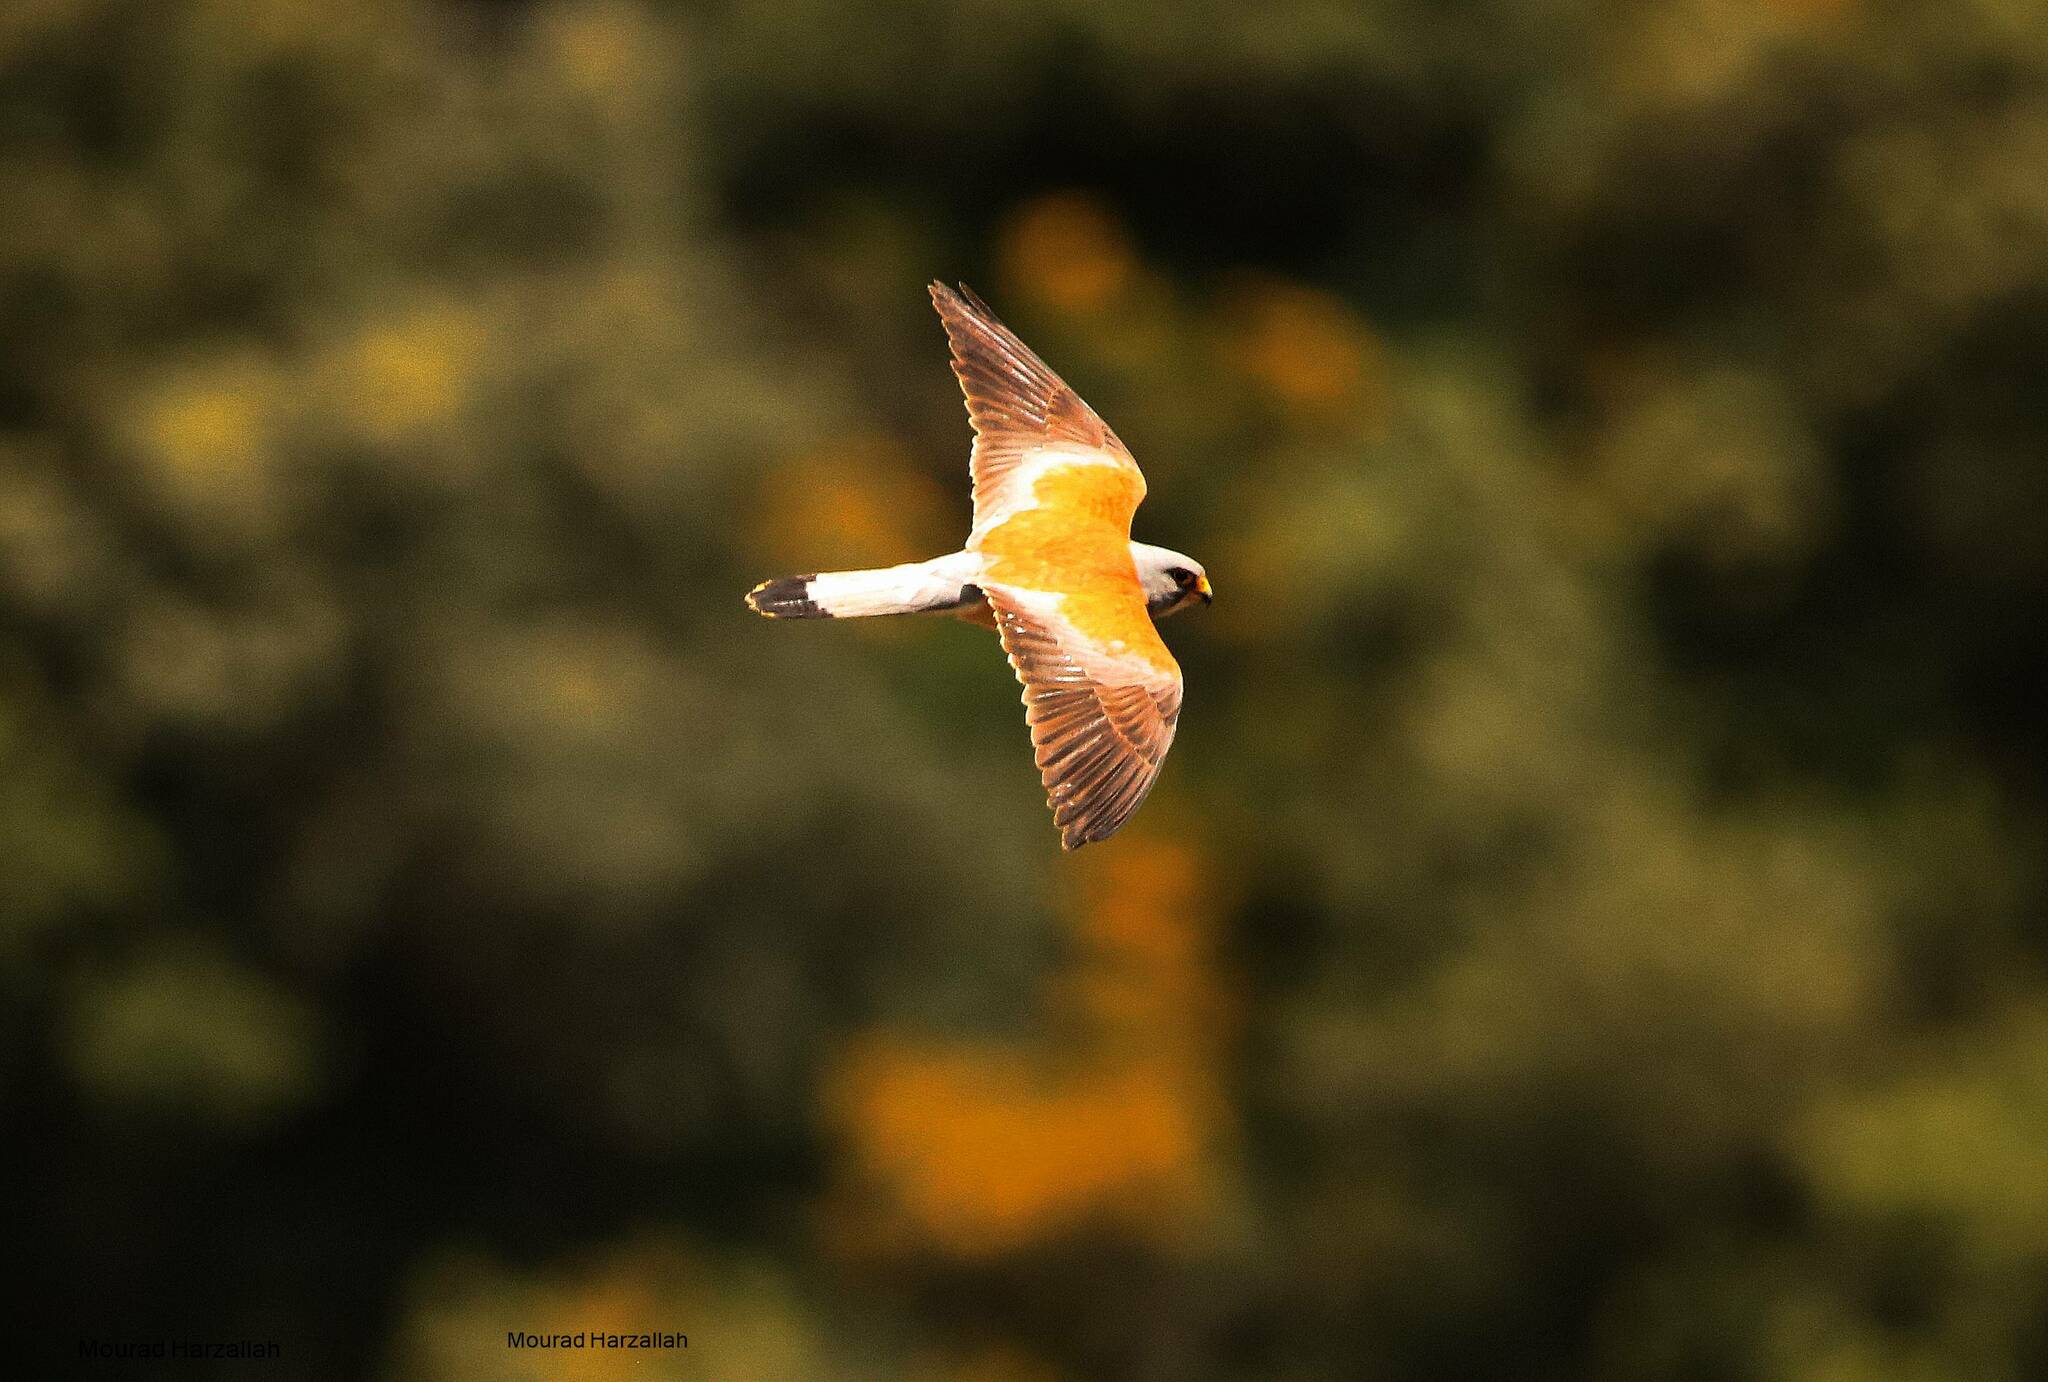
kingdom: Animalia
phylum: Chordata
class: Aves
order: Falconiformes
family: Falconidae
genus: Falco
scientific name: Falco naumanni
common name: Lesser kestrel
